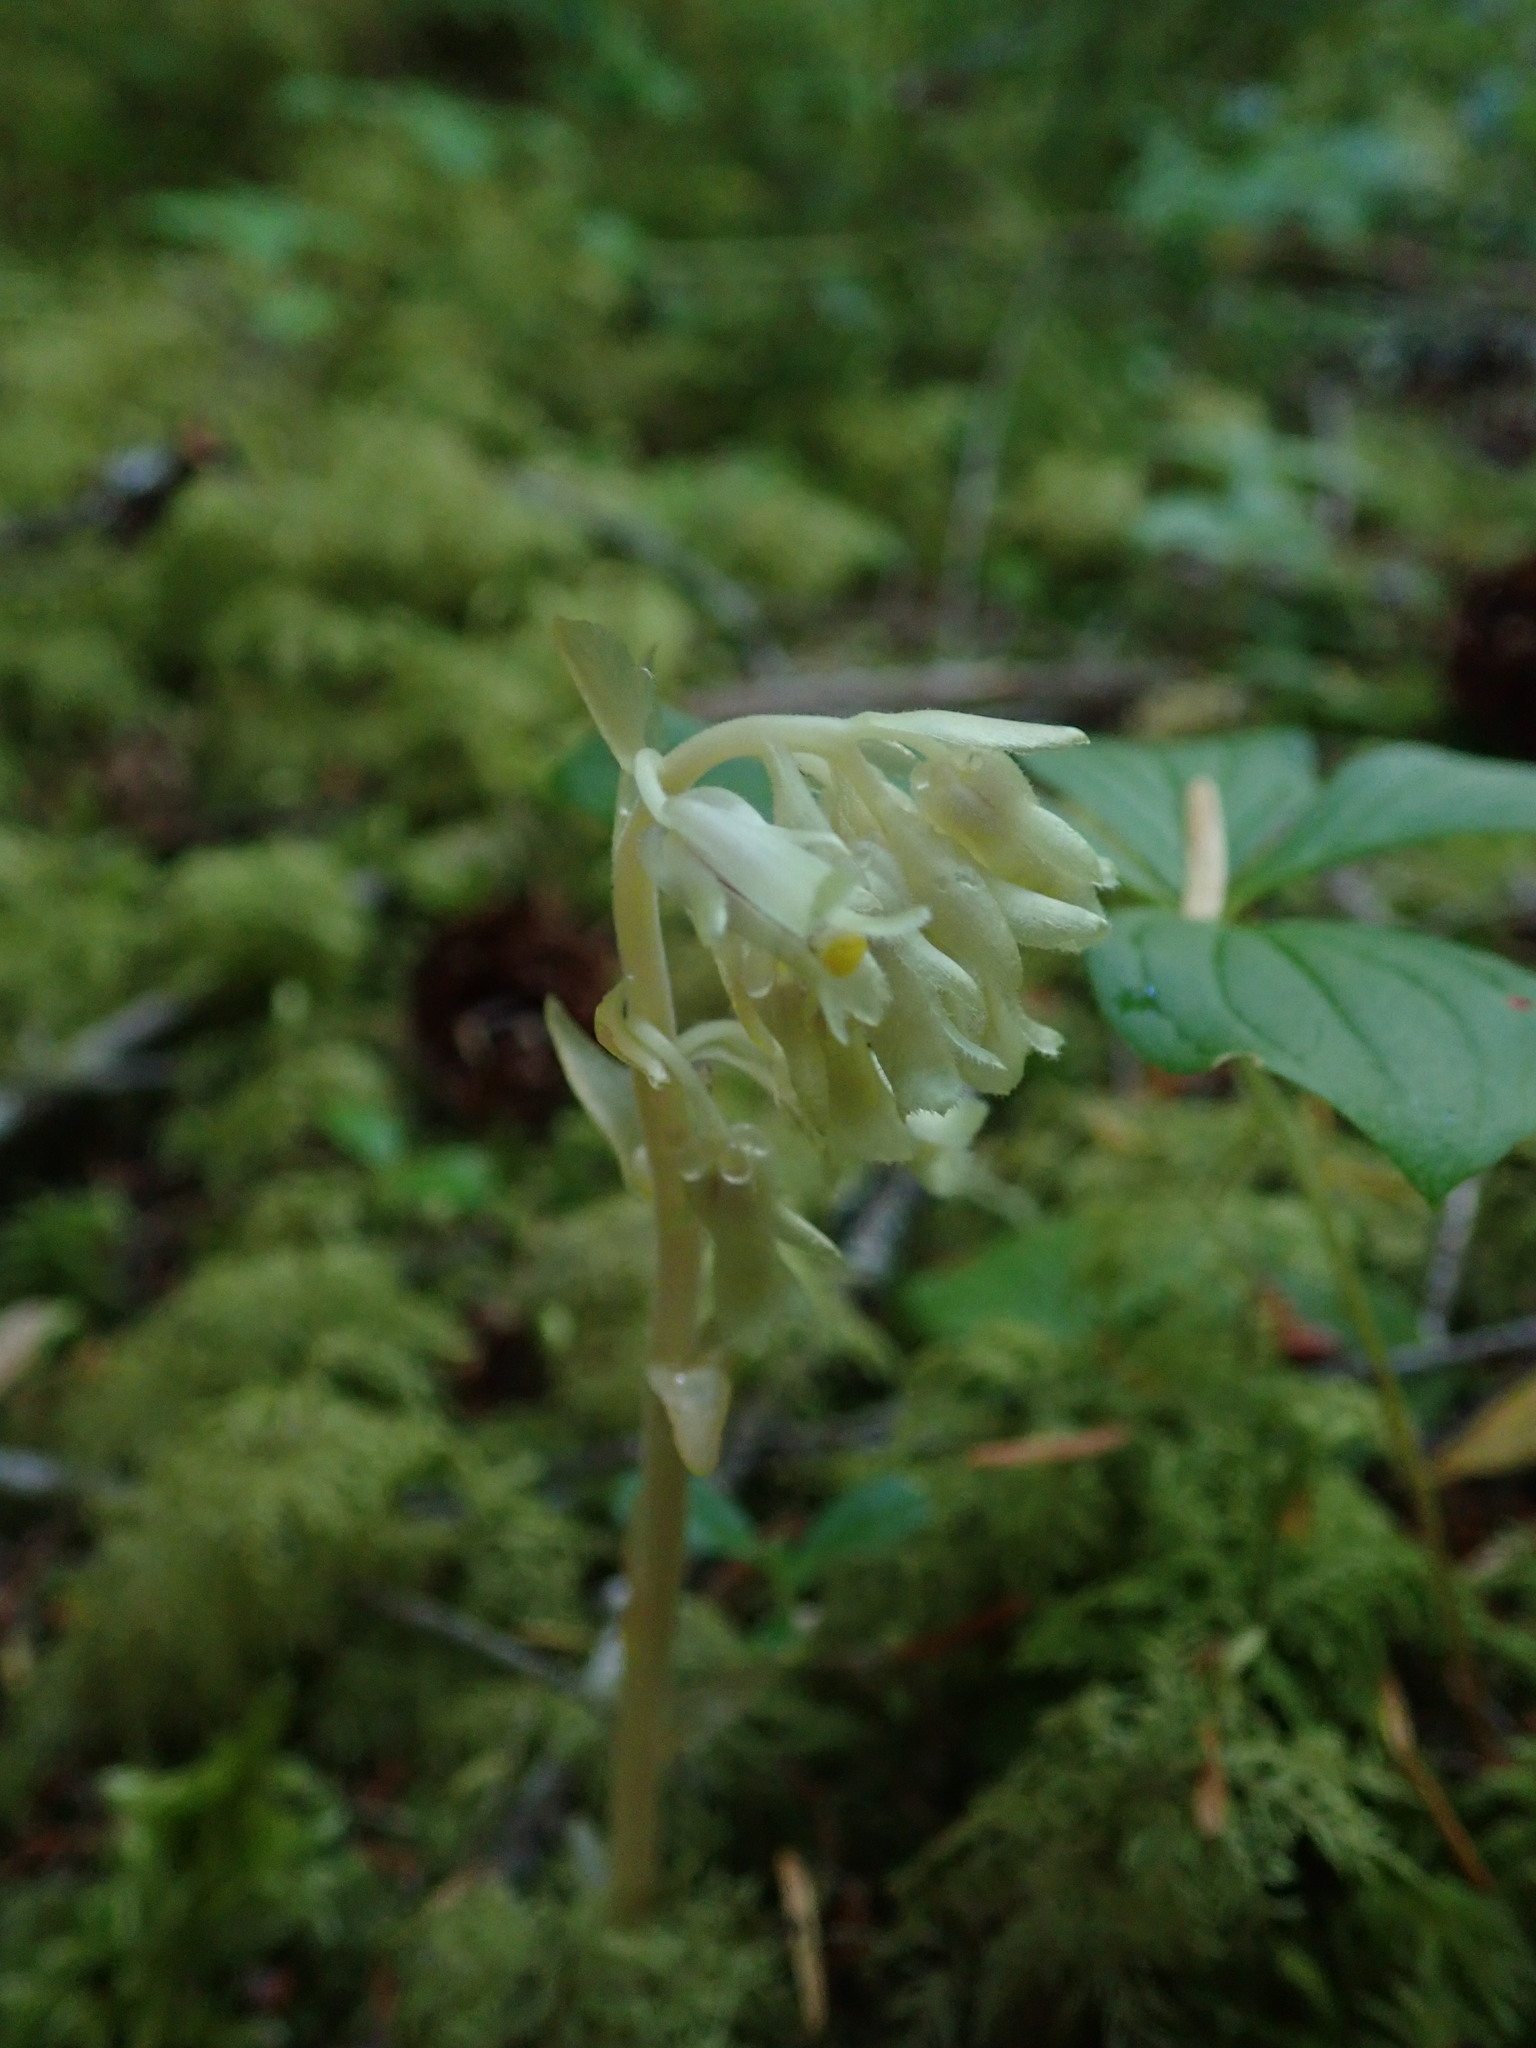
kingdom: Plantae
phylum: Tracheophyta
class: Magnoliopsida
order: Ericales
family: Ericaceae
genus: Hypopitys
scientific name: Hypopitys monotropa
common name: Yellow bird's-nest
